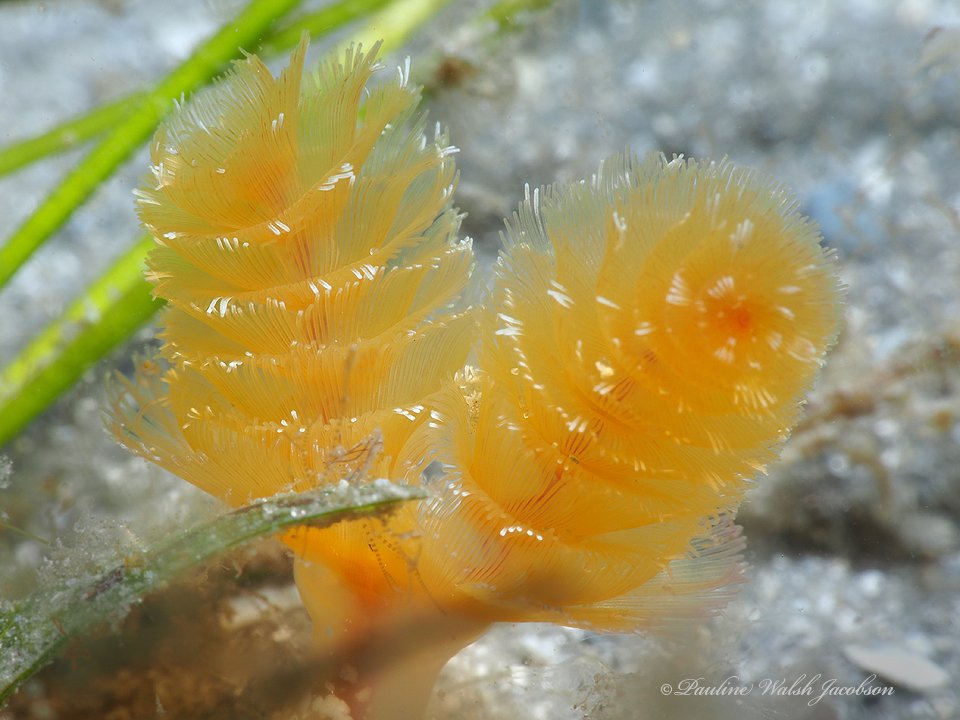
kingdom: Animalia
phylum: Phoronida
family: Phoronidae
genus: Phoronopsis
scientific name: Phoronopsis californica
